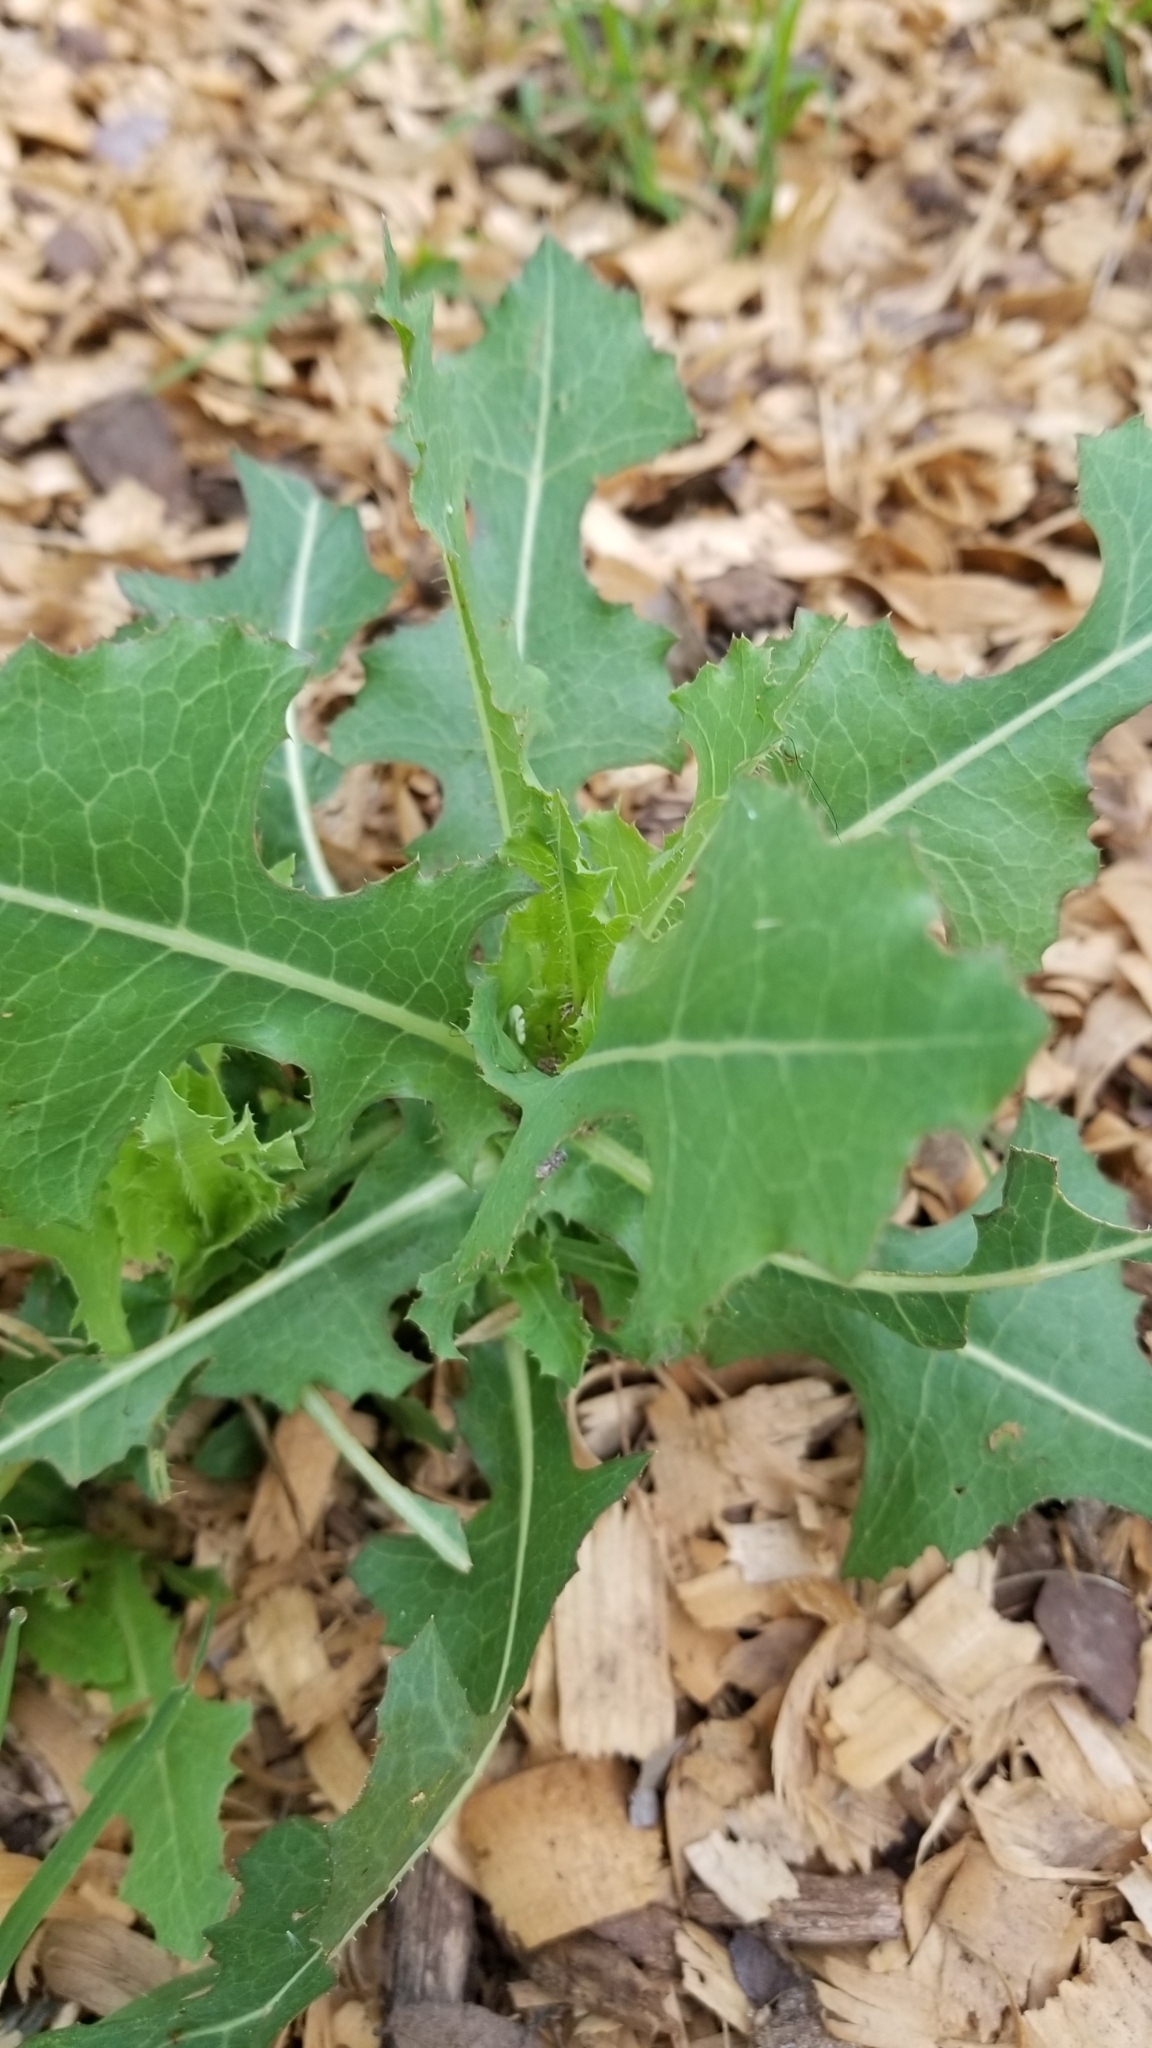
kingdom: Plantae
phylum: Tracheophyta
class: Magnoliopsida
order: Asterales
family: Asteraceae
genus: Lactuca
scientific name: Lactuca serriola
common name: Prickly lettuce
